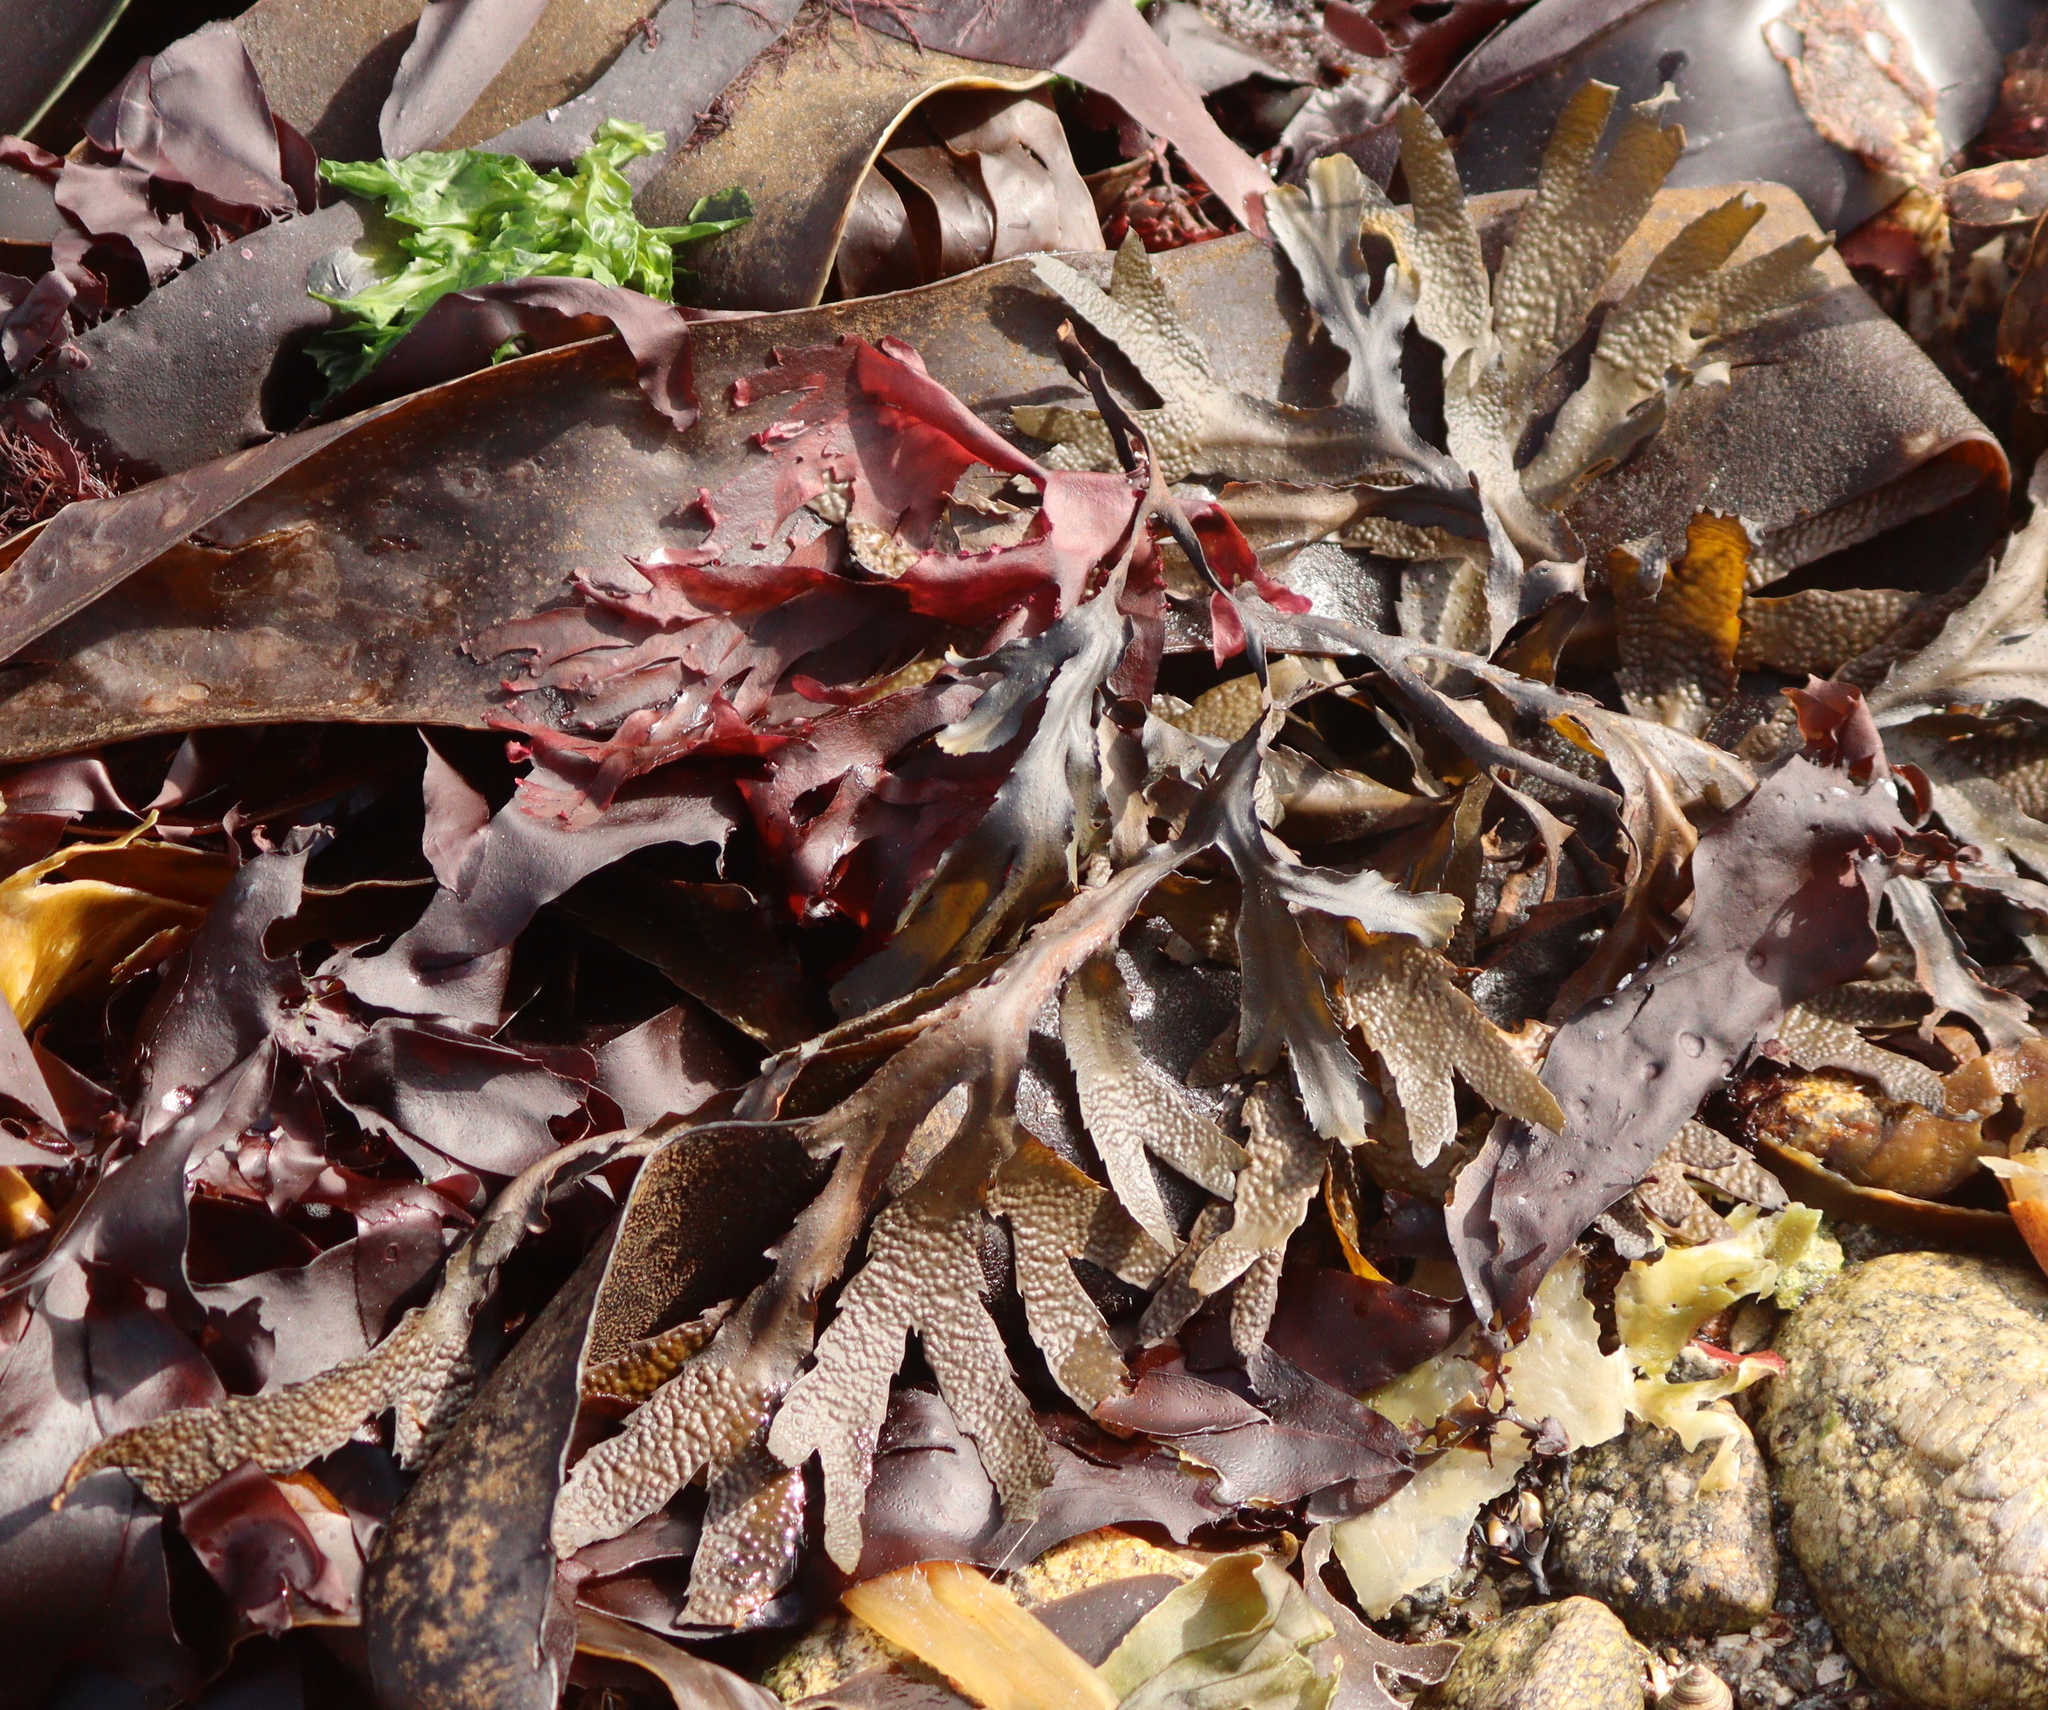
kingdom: Chromista
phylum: Ochrophyta
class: Phaeophyceae
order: Fucales
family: Fucaceae
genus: Fucus
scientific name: Fucus serratus
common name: Toothed wrack
